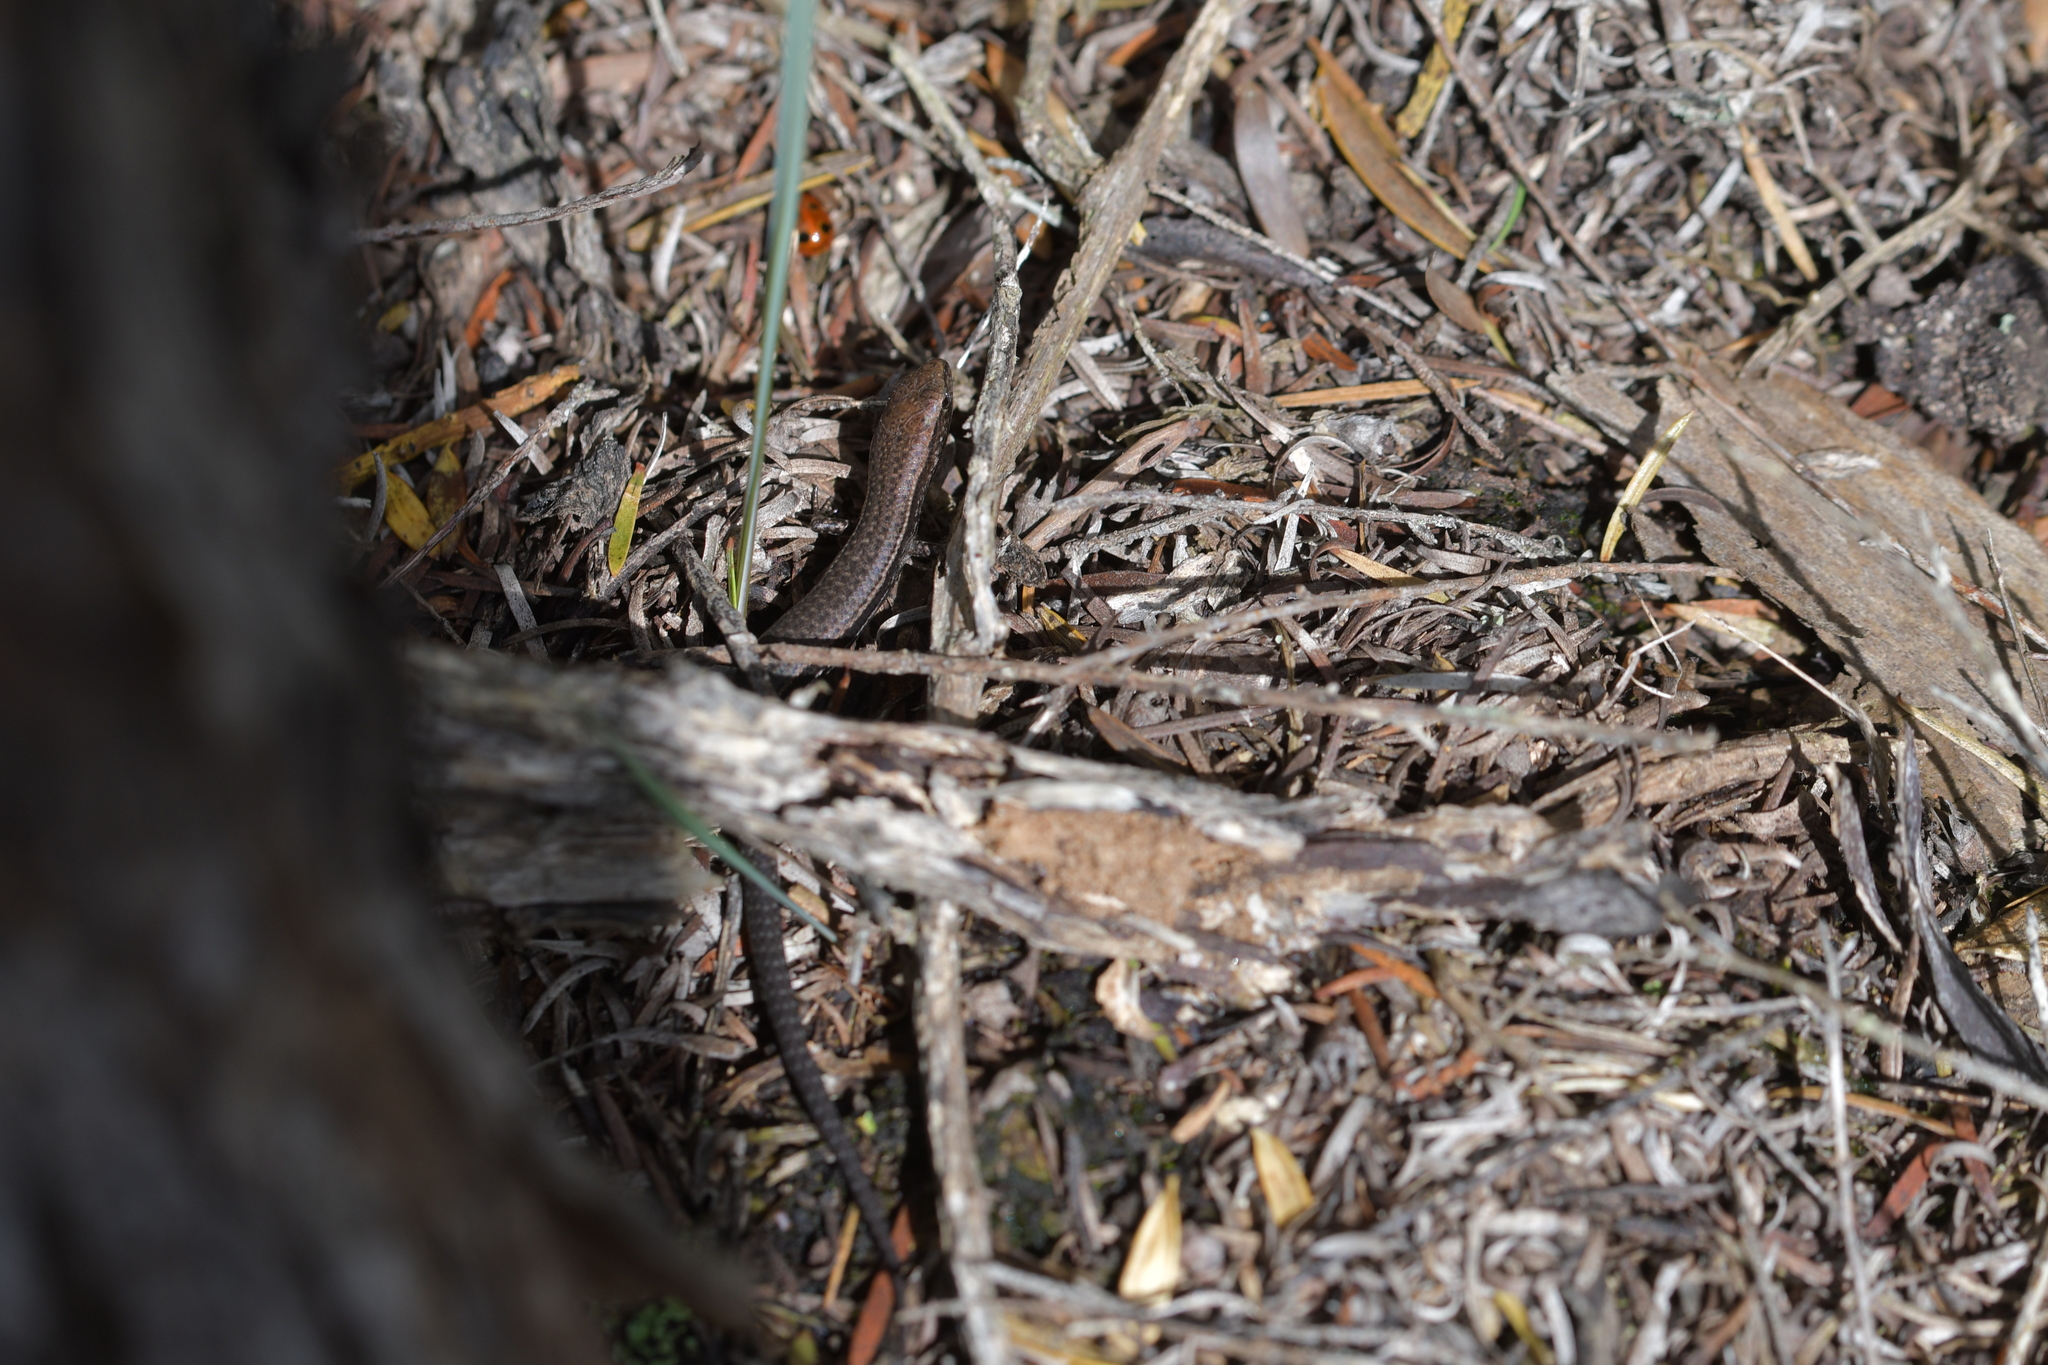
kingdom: Animalia
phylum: Chordata
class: Squamata
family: Scincidae
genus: Lampropholis
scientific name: Lampropholis delicata
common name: Plague skink
